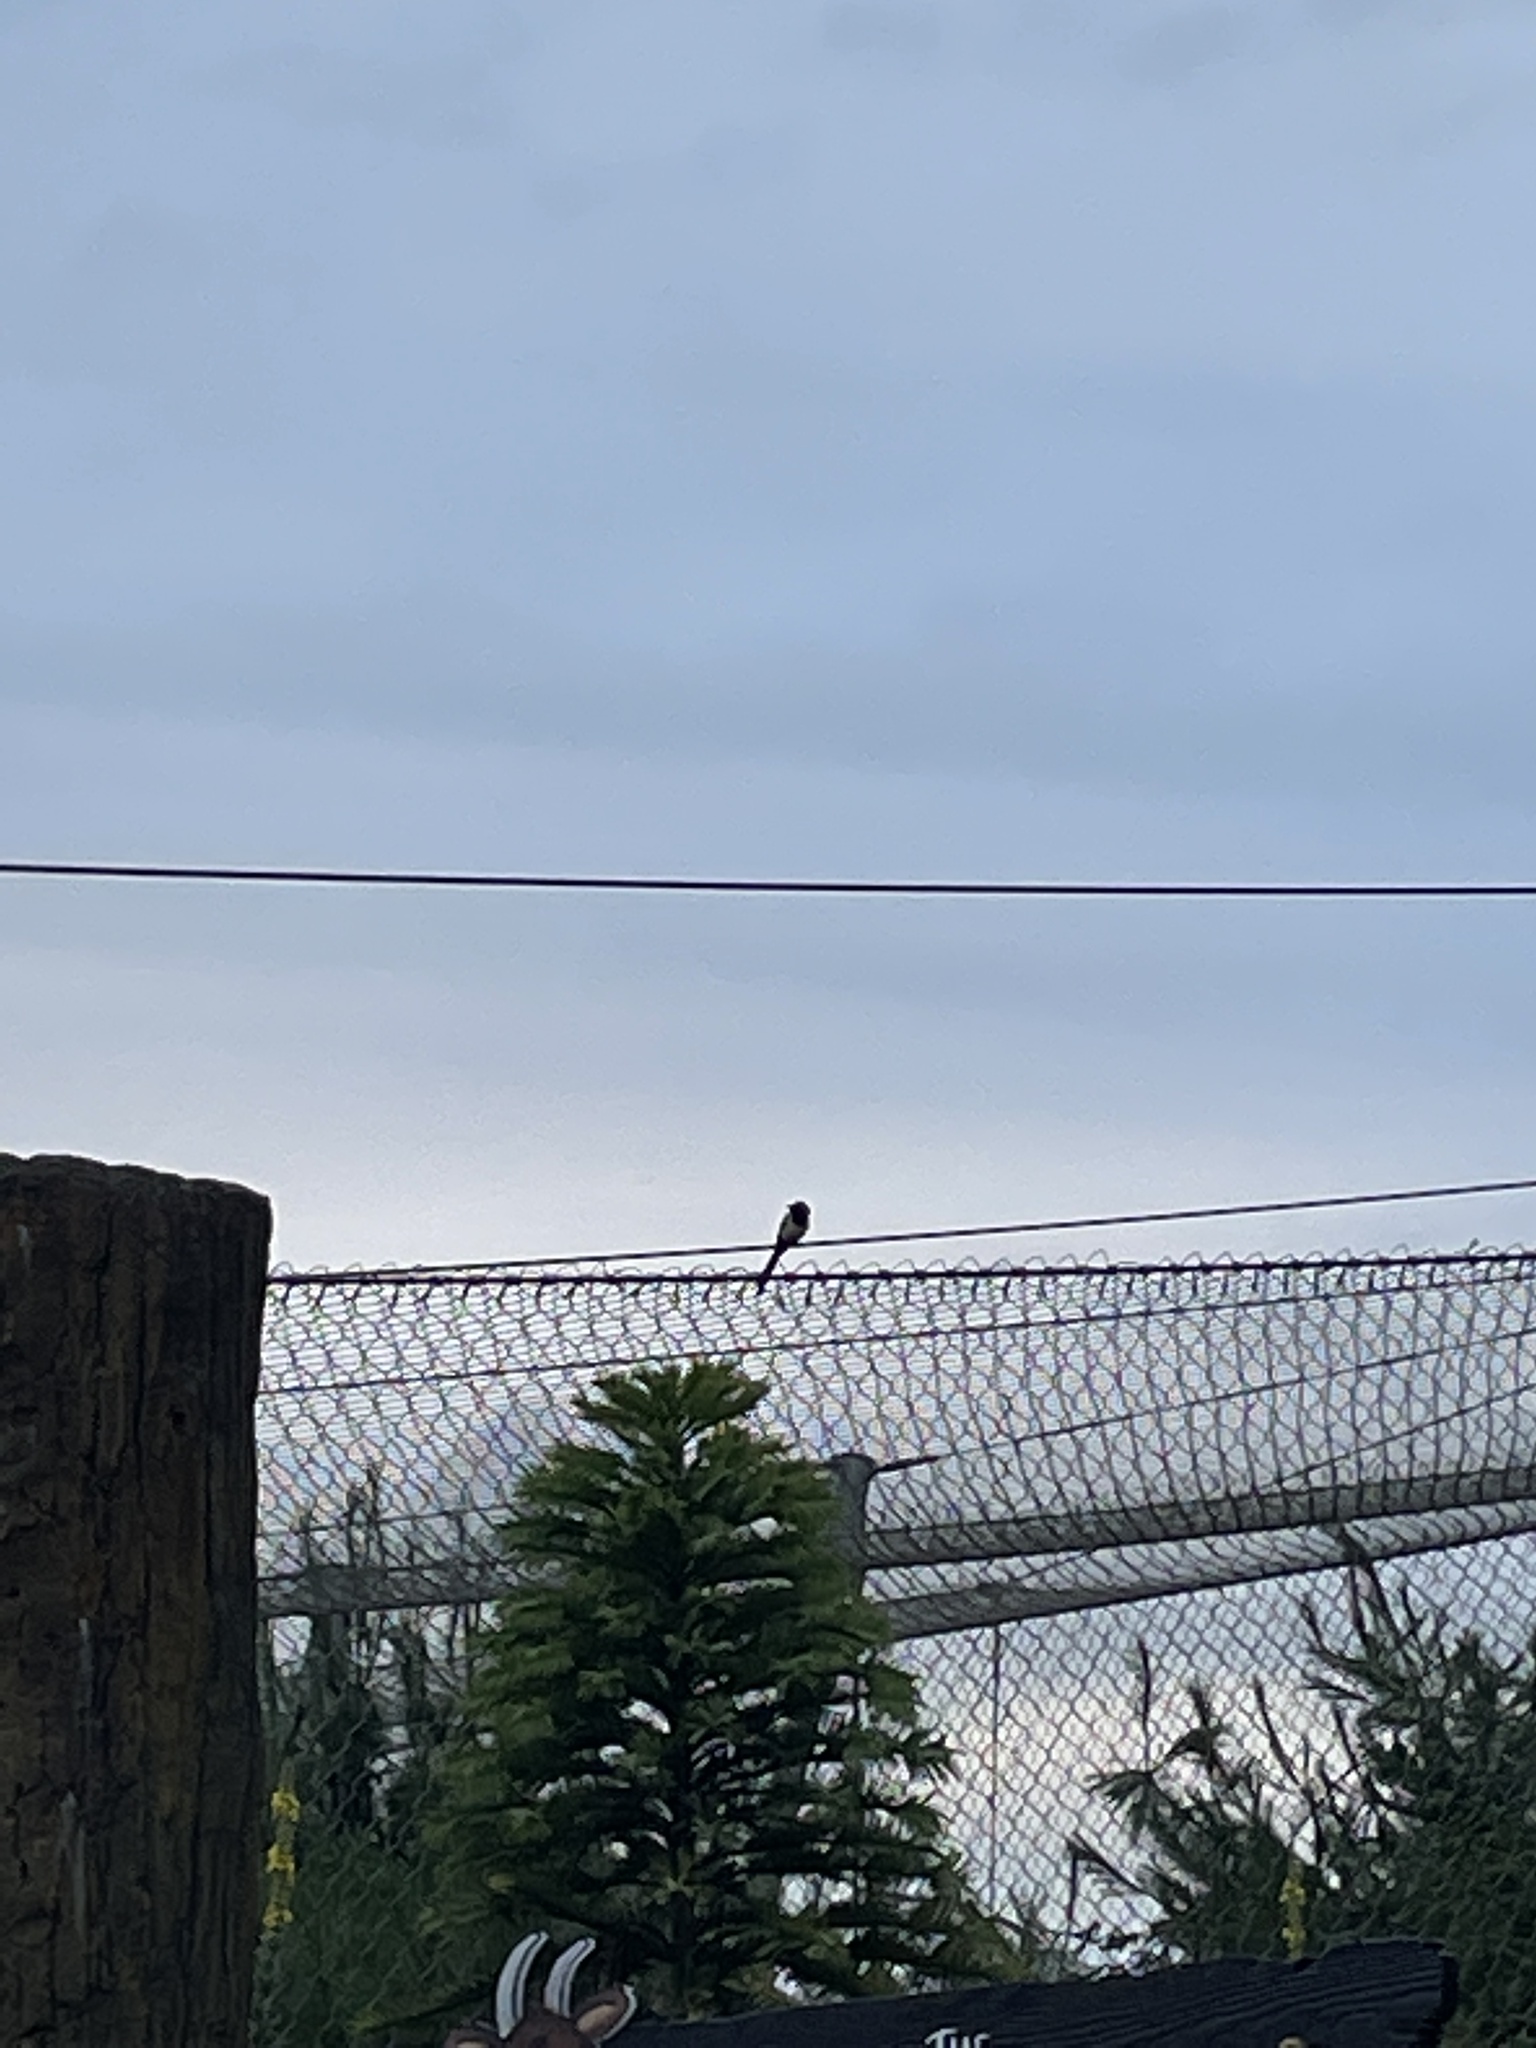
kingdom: Animalia
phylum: Chordata
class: Aves
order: Passeriformes
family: Corvidae
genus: Pica
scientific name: Pica pica
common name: Eurasian magpie
